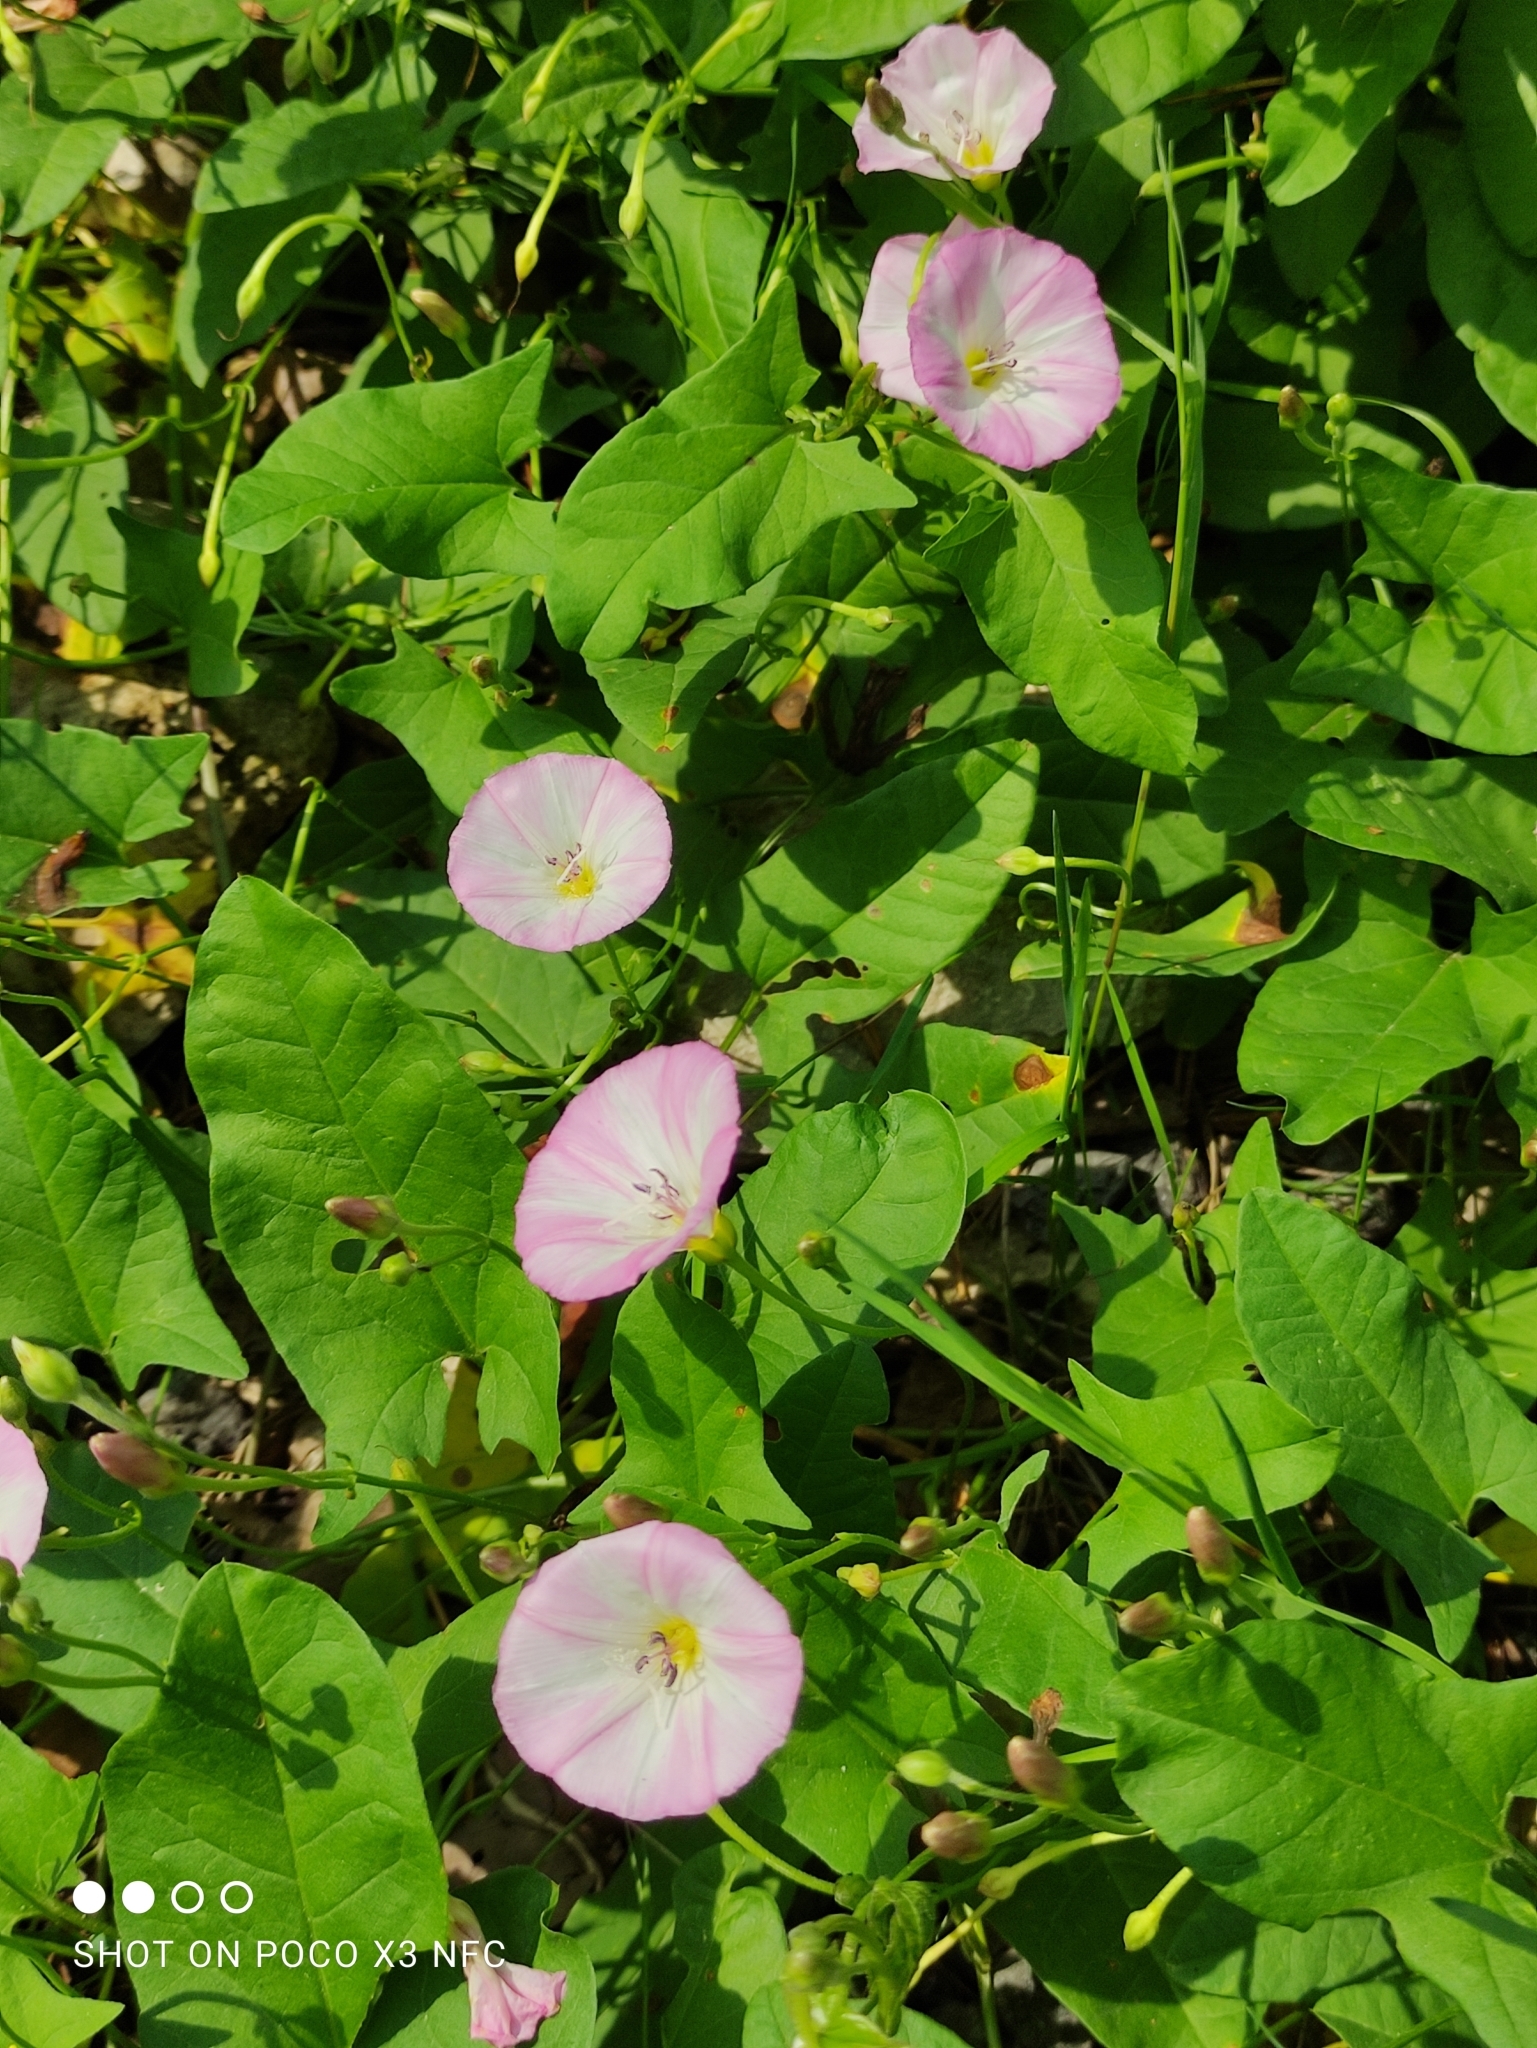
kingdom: Plantae
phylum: Tracheophyta
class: Magnoliopsida
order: Solanales
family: Convolvulaceae
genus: Convolvulus
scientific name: Convolvulus arvensis
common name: Field bindweed
